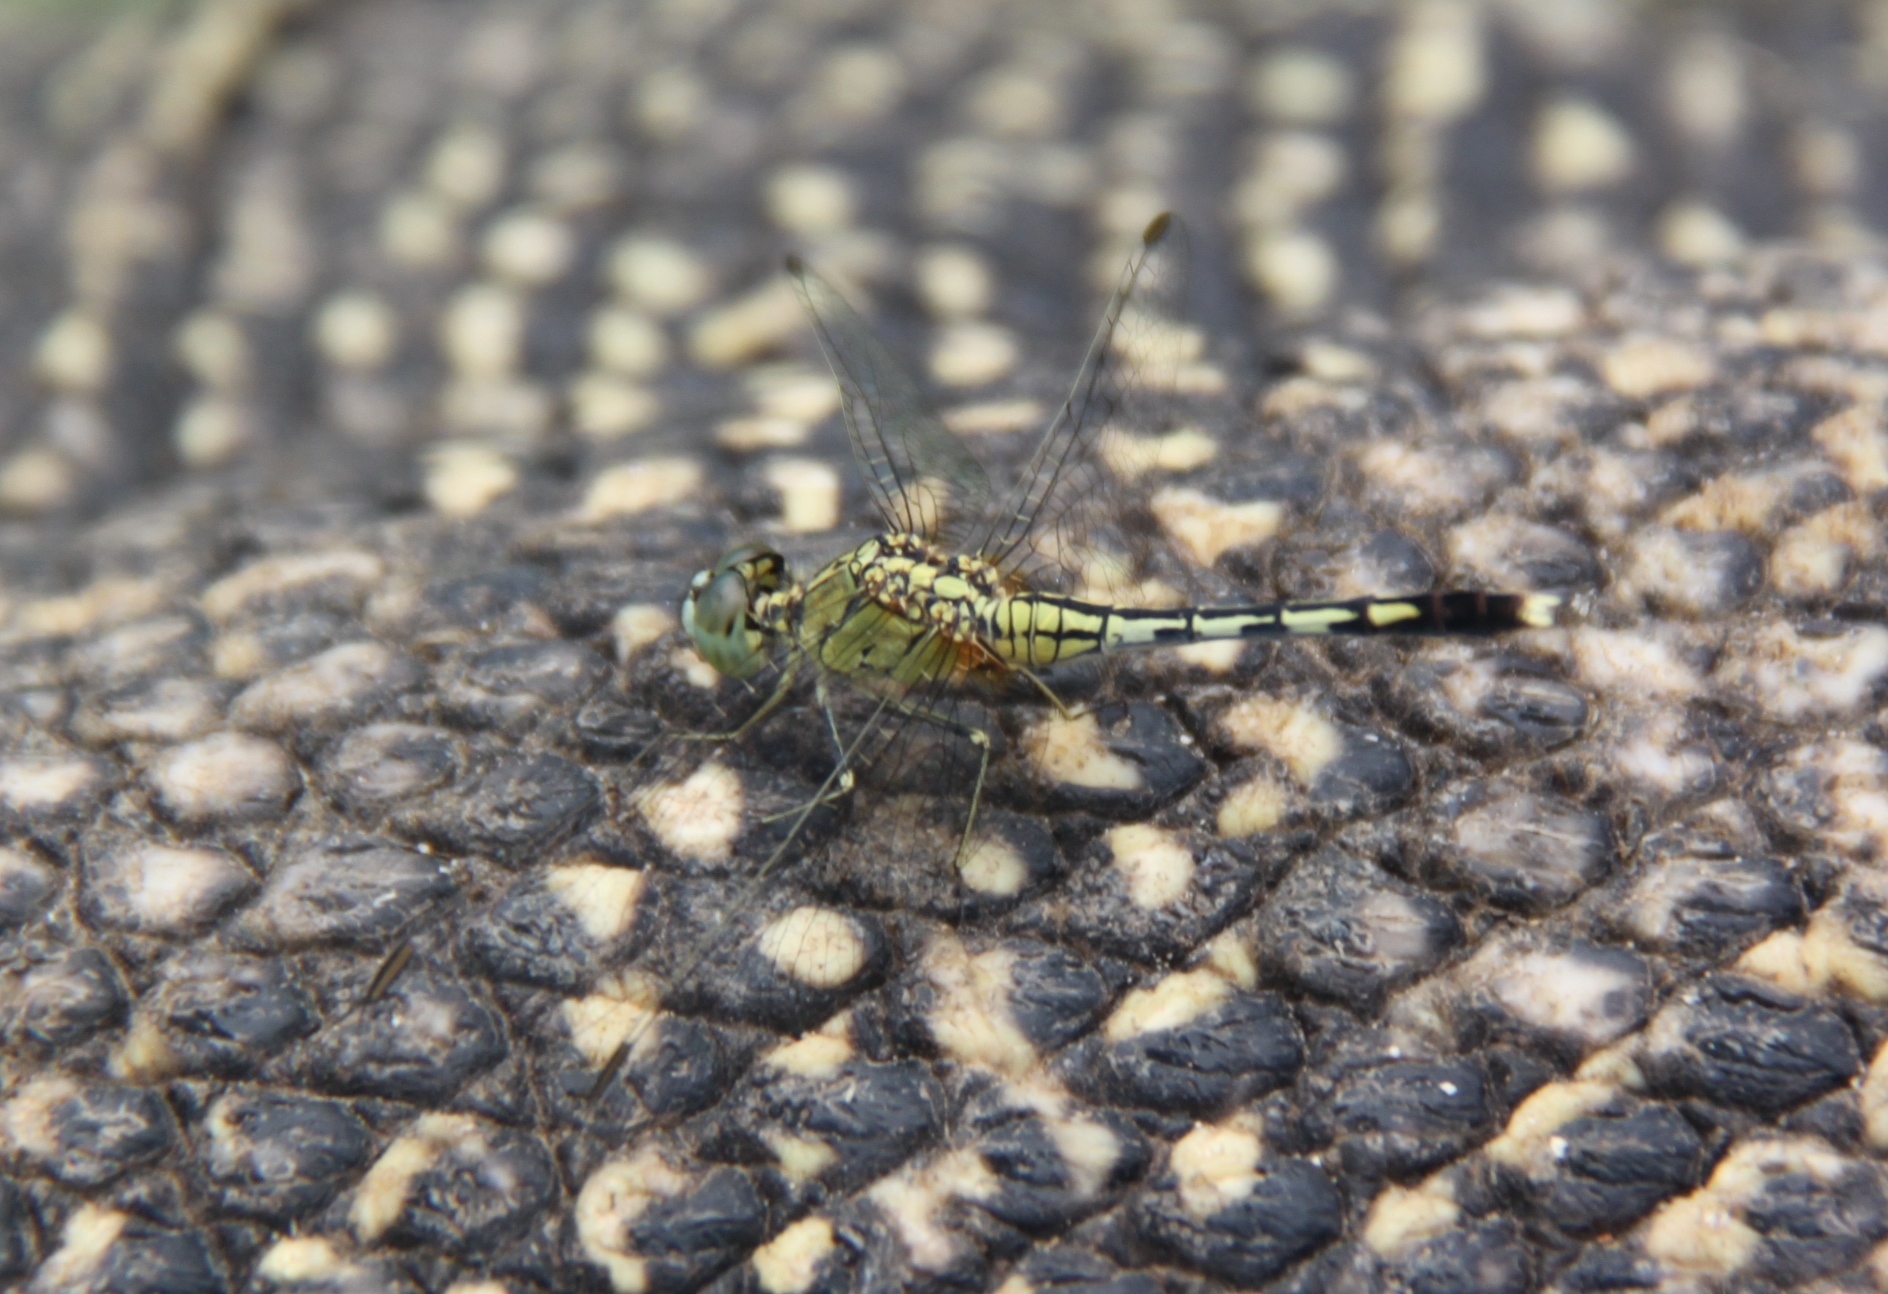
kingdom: Animalia
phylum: Arthropoda
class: Insecta
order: Odonata
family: Libellulidae
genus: Diplacodes
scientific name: Diplacodes trivialis
